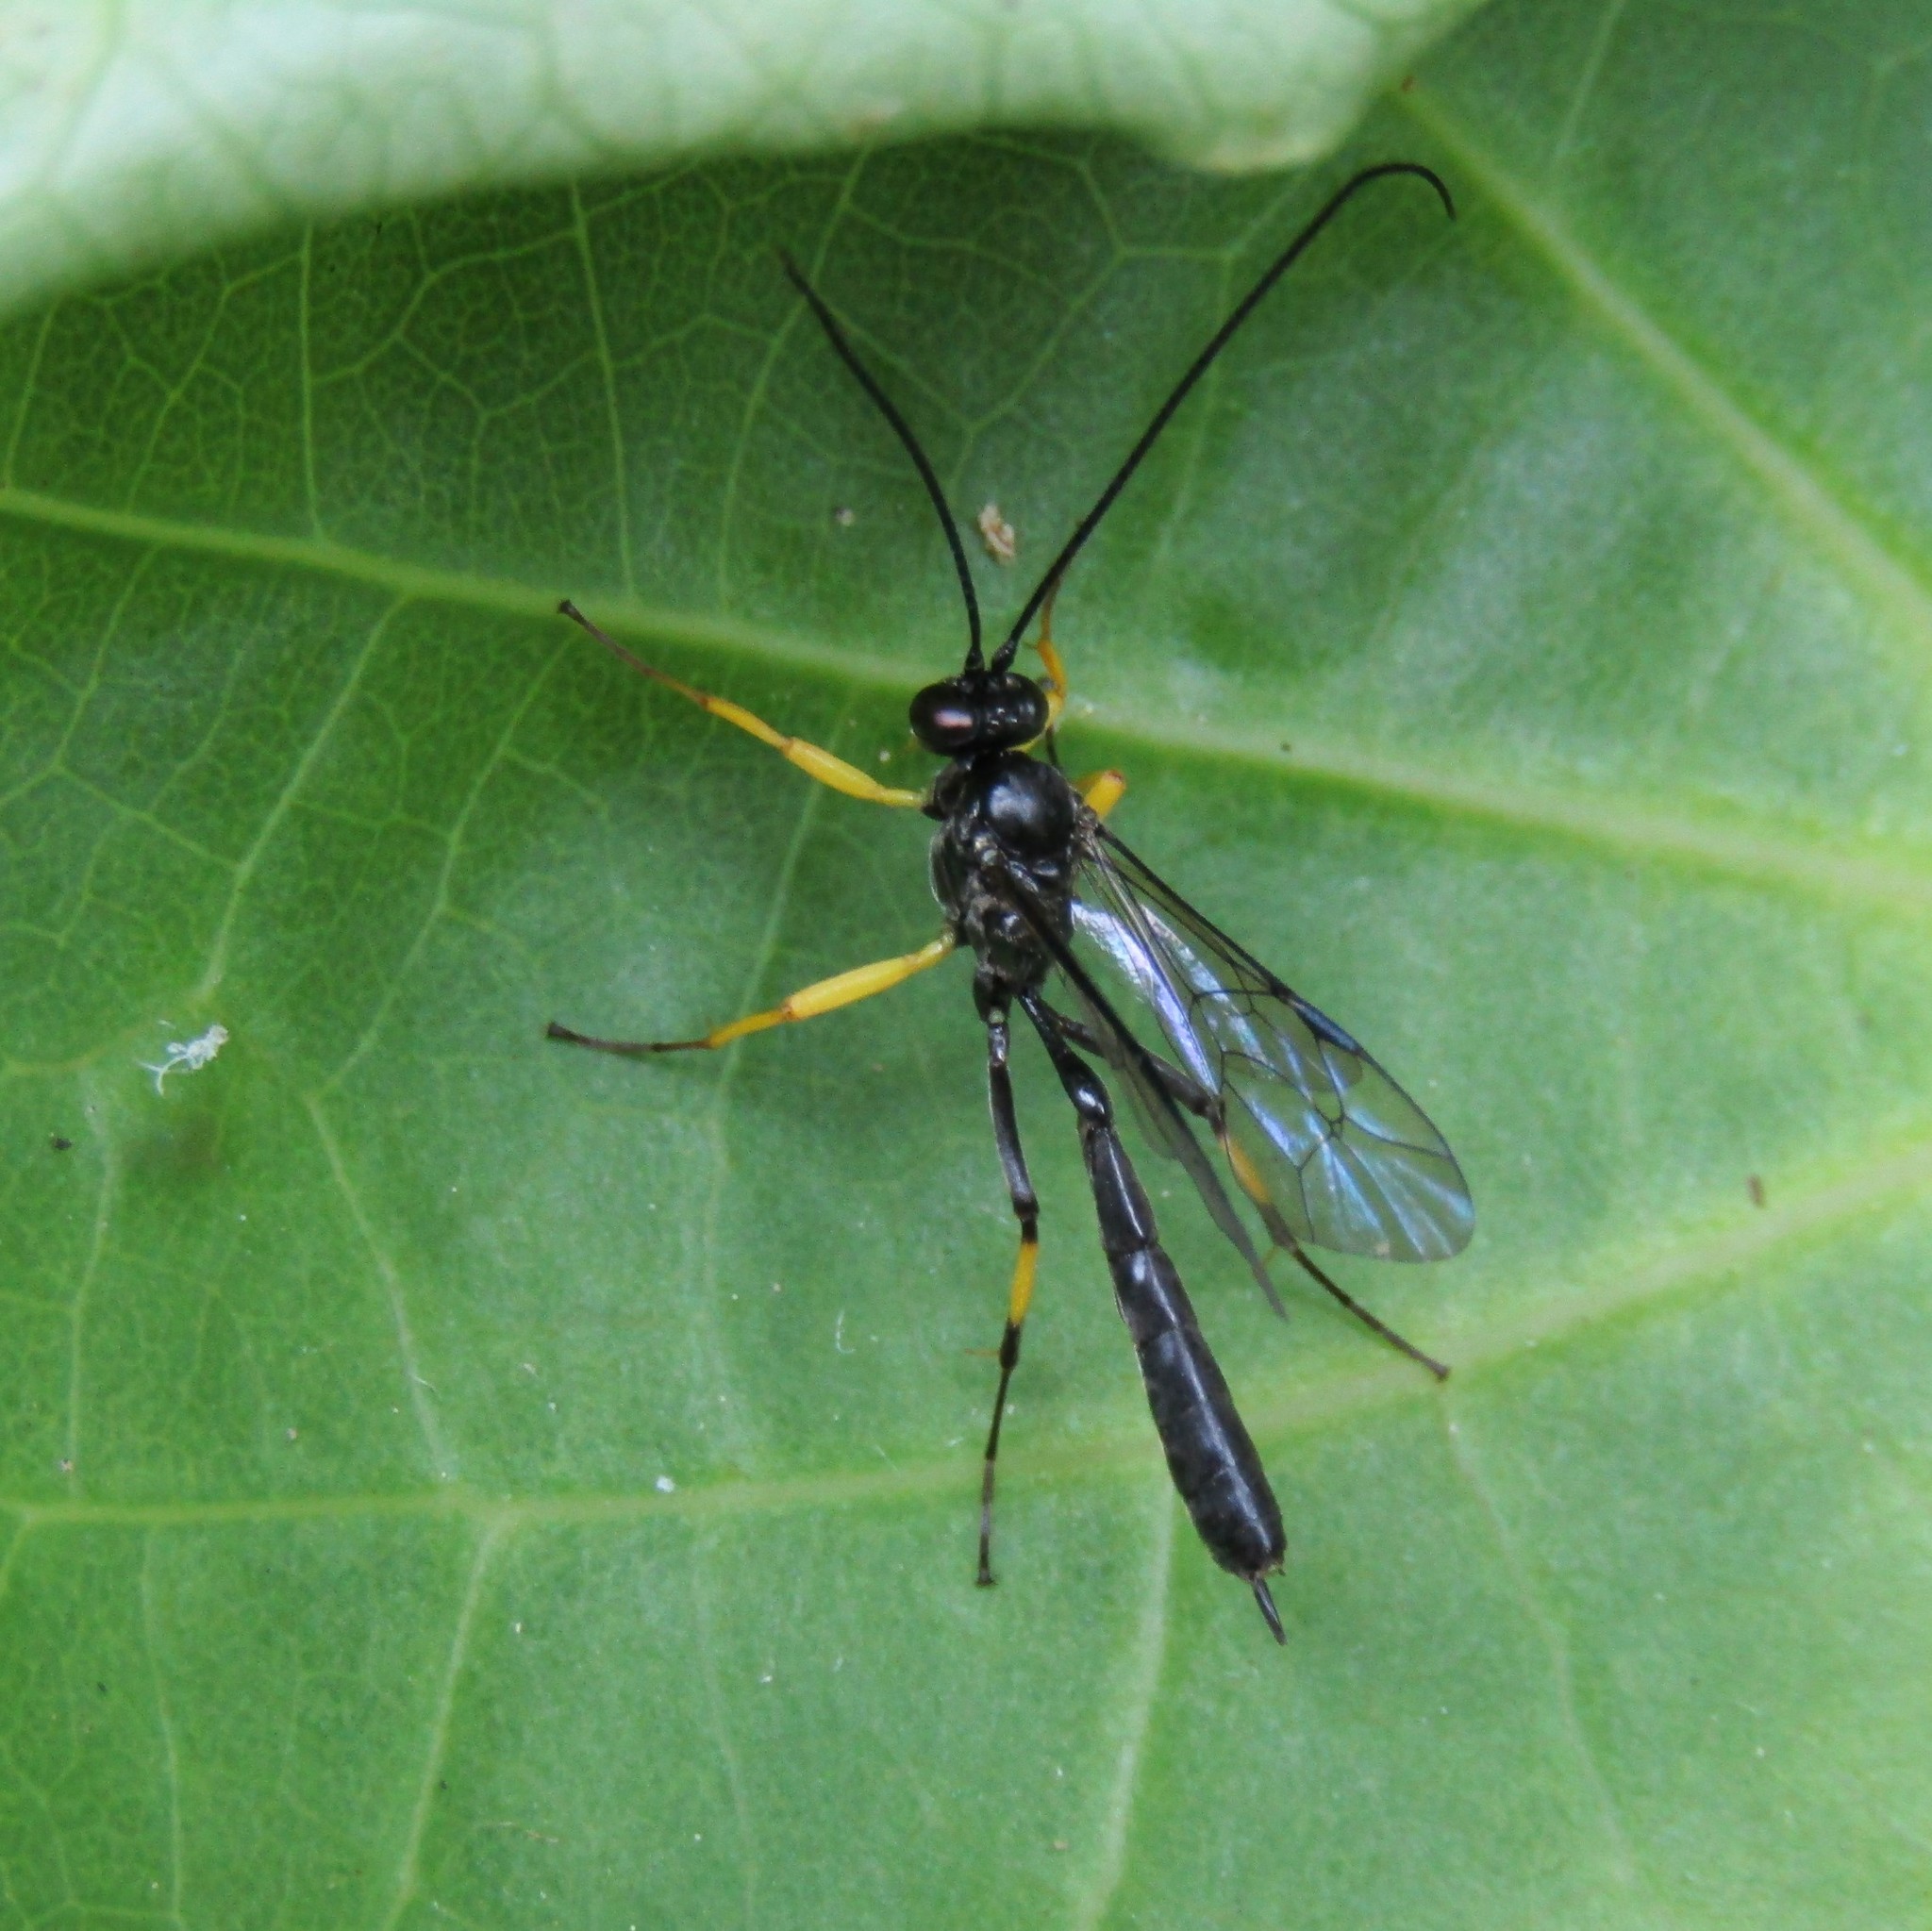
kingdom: Animalia
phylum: Arthropoda
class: Insecta
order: Hymenoptera
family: Ichneumonidae
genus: Dusona
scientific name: Dusona stramineipes
